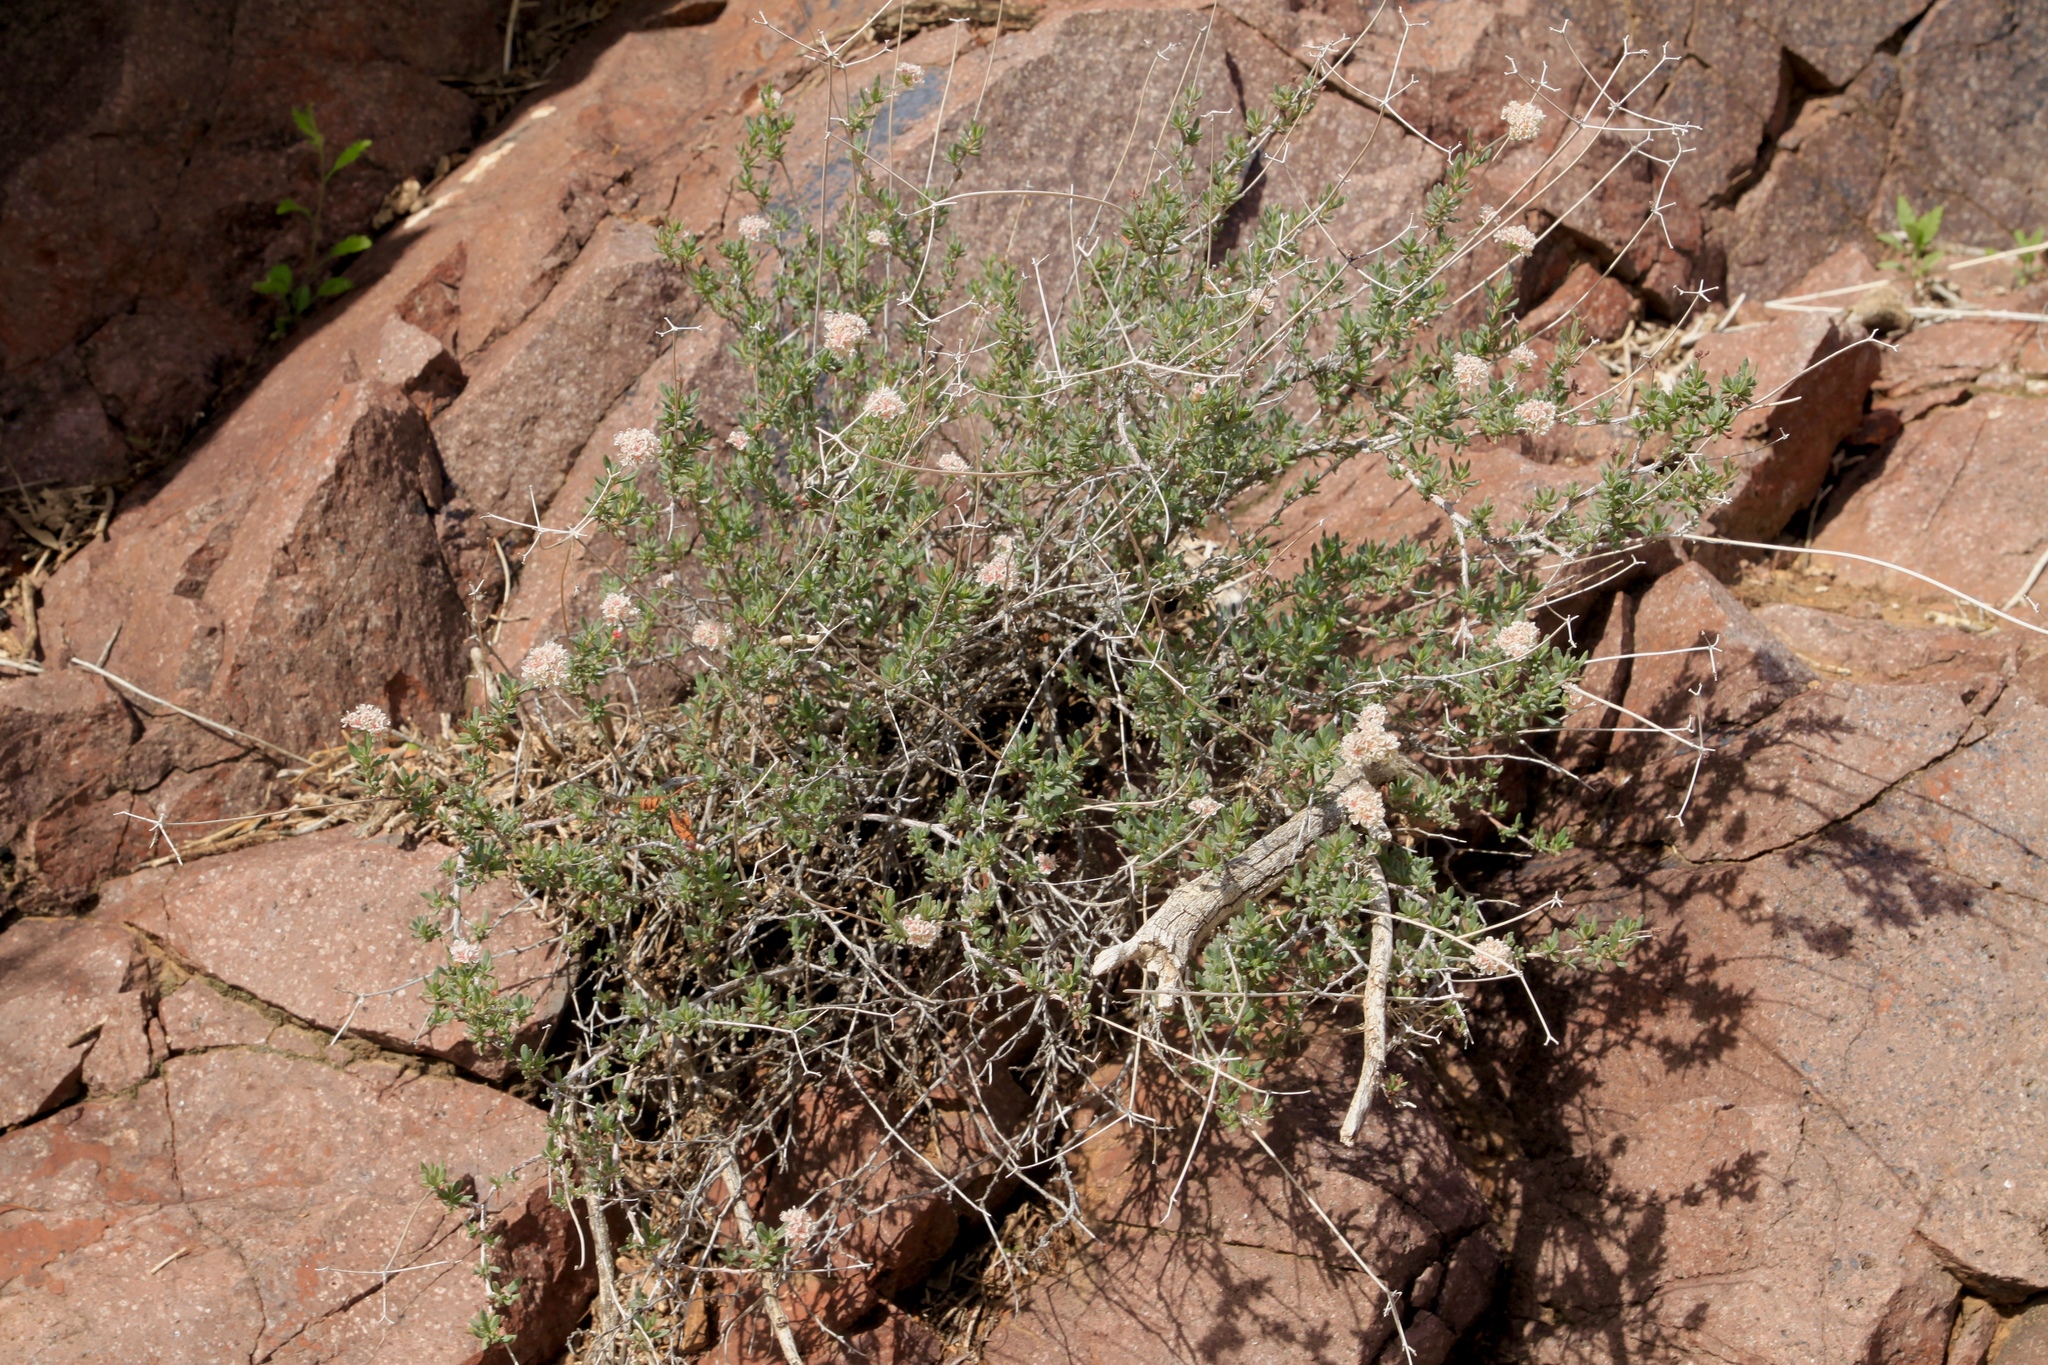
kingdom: Plantae
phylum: Tracheophyta
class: Magnoliopsida
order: Caryophyllales
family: Polygonaceae
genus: Eriogonum
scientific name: Eriogonum fasciculatum
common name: California wild buckwheat
